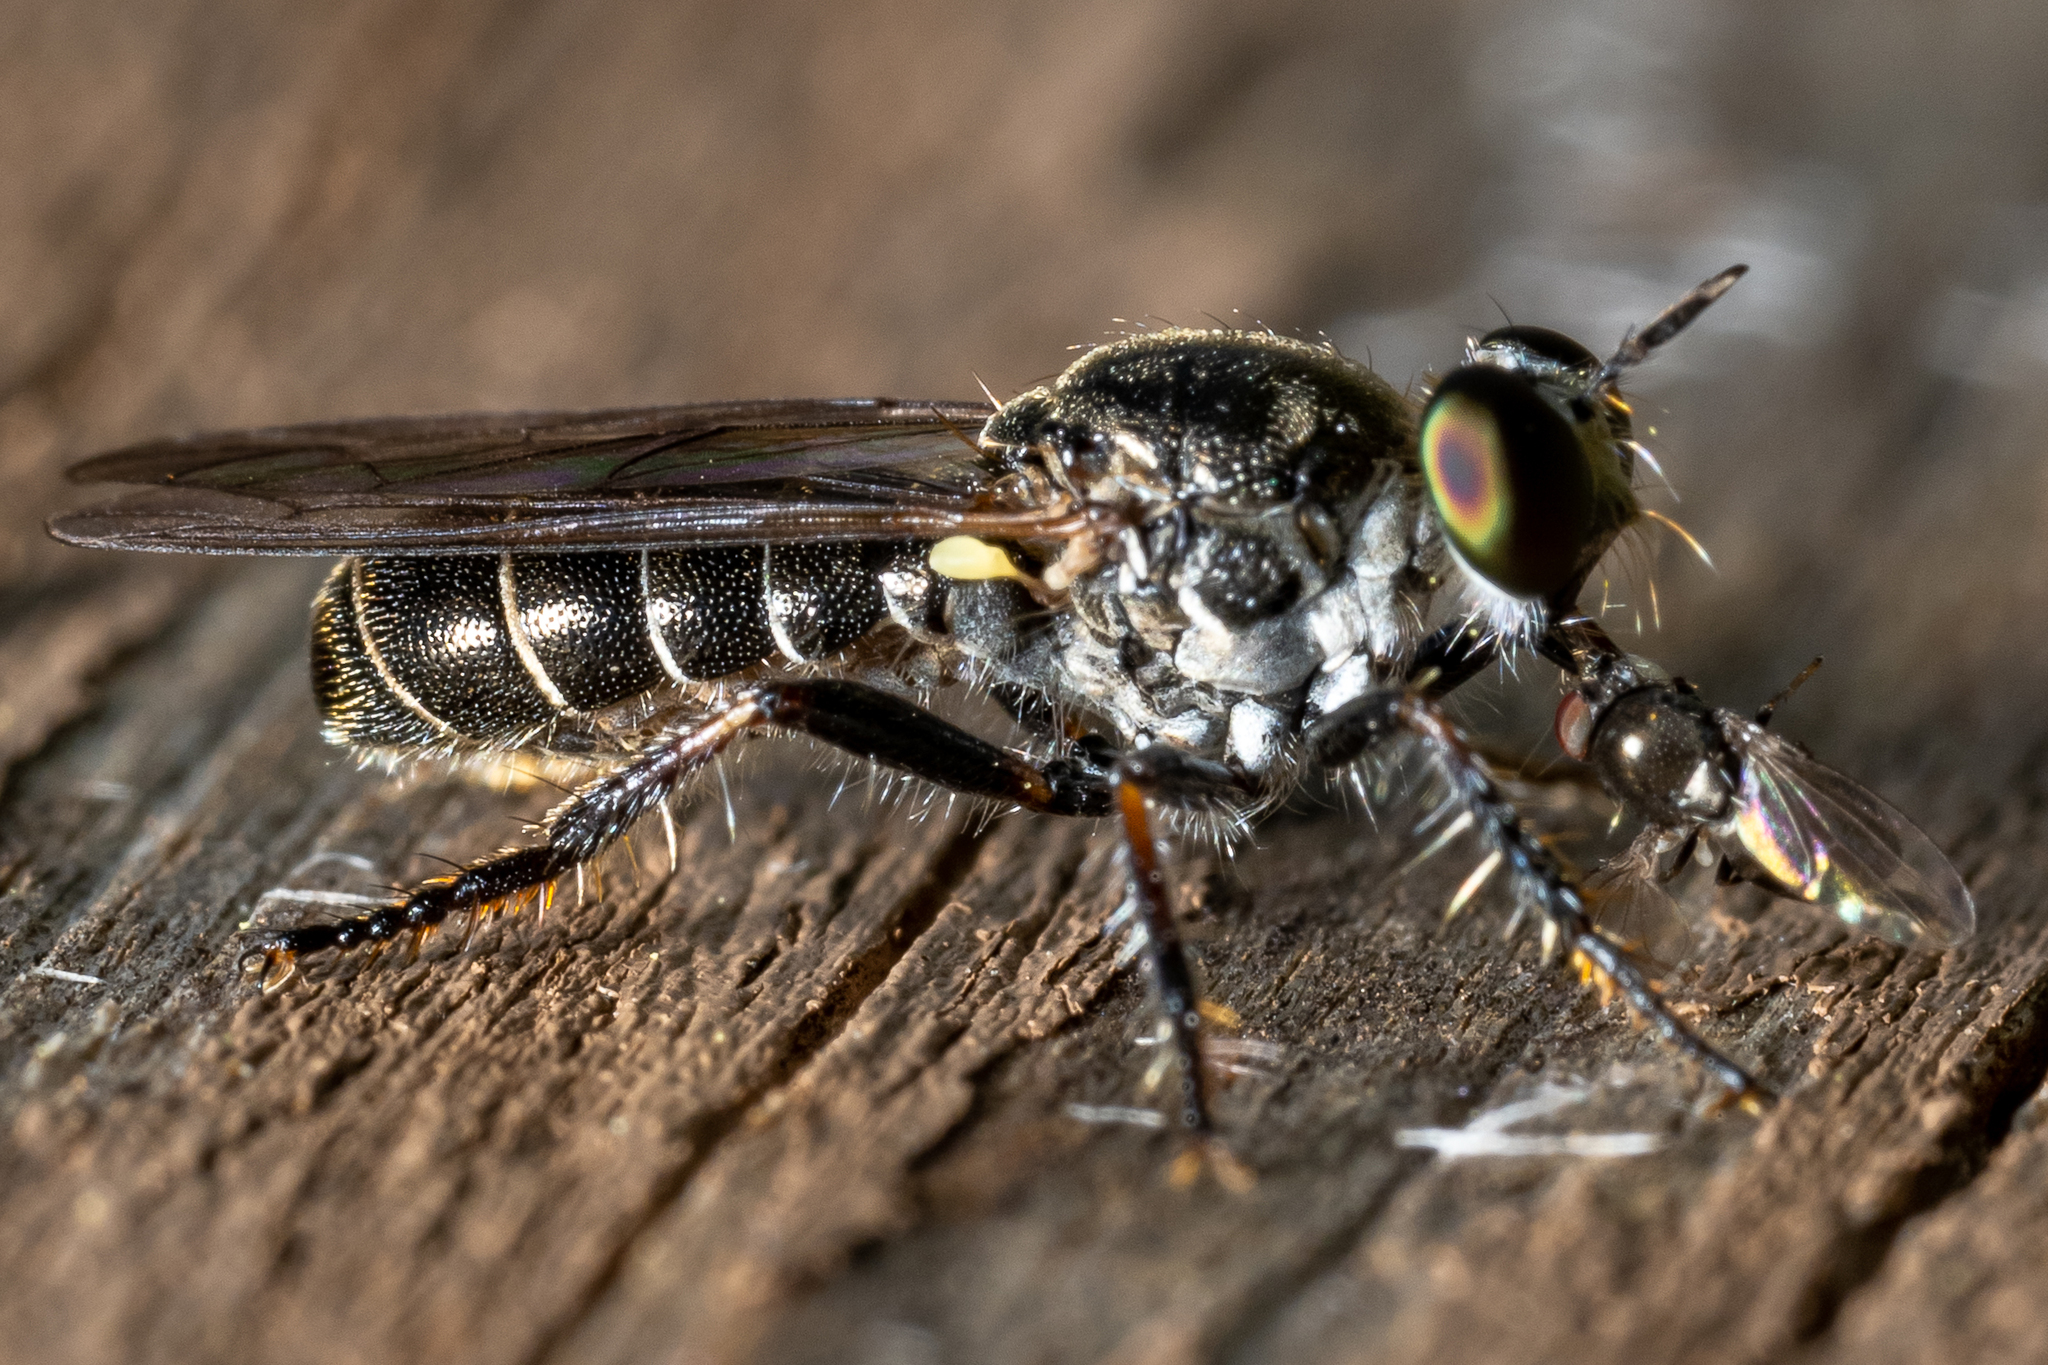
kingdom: Animalia
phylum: Arthropoda
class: Insecta
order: Diptera
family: Asilidae
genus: Atomosia
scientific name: Atomosia puella
